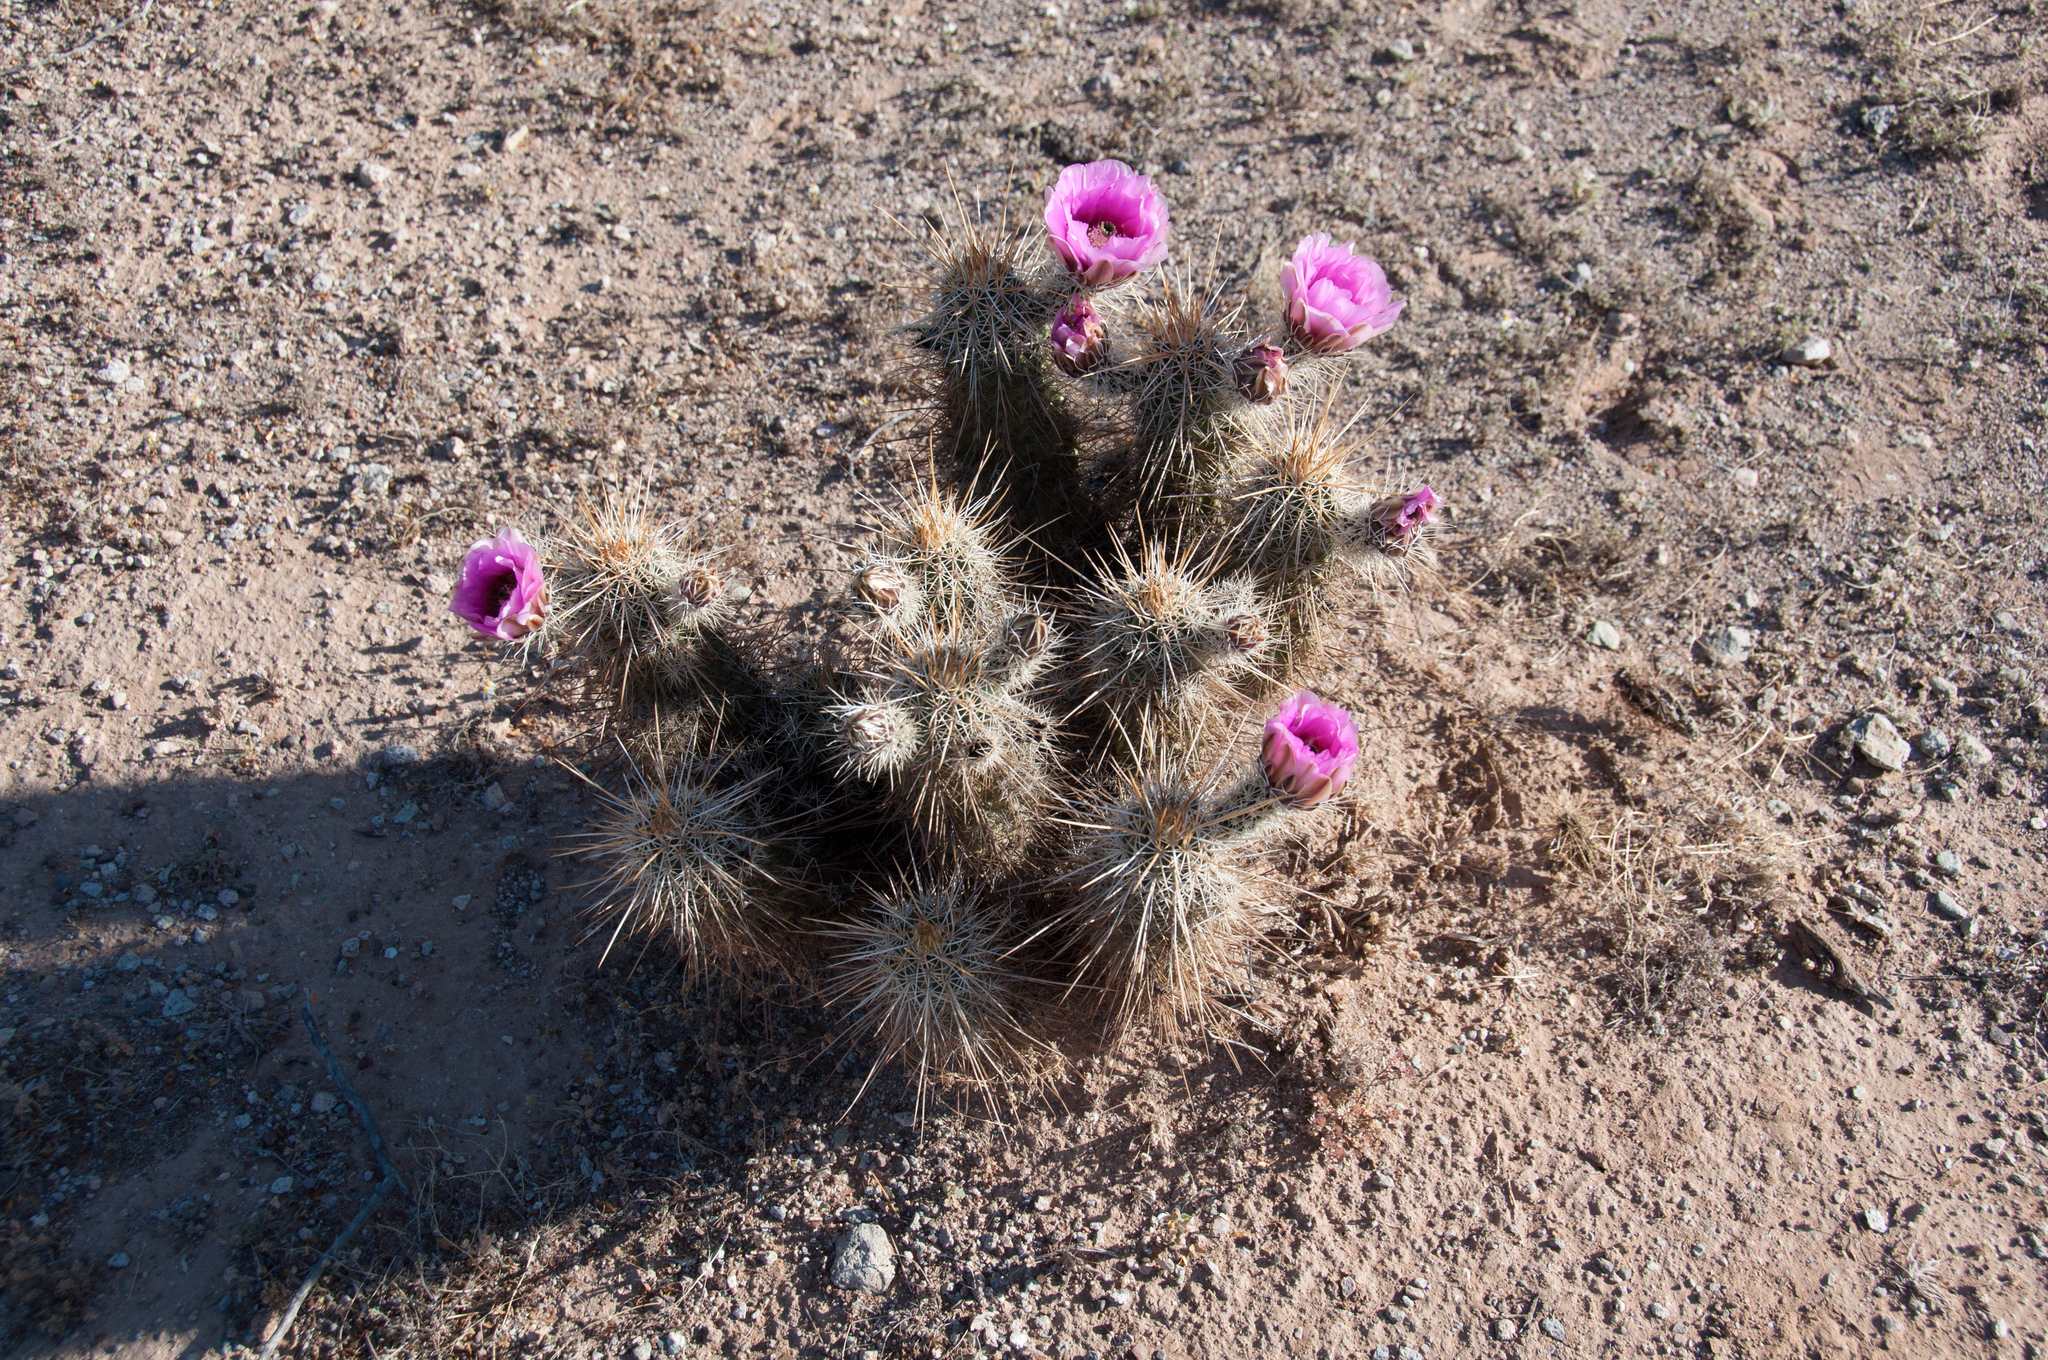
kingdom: Plantae
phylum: Tracheophyta
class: Magnoliopsida
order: Caryophyllales
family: Cactaceae
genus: Echinocereus
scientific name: Echinocereus fasciculatus
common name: Bundle hedgehog
